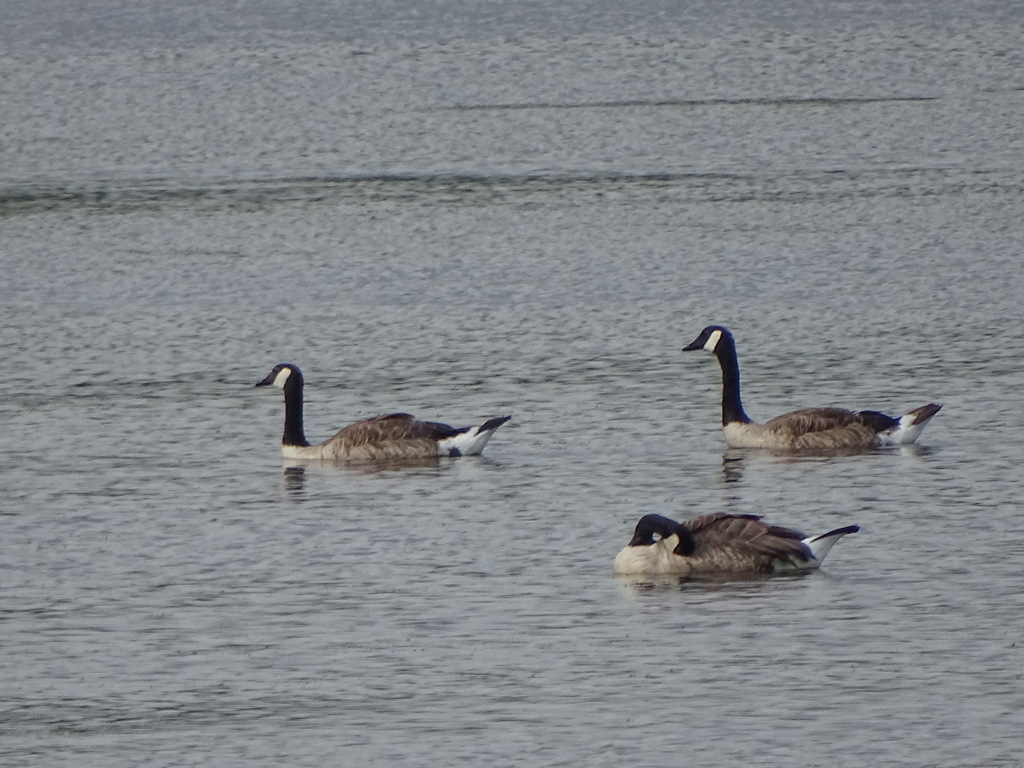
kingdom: Animalia
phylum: Chordata
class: Aves
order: Anseriformes
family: Anatidae
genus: Branta
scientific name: Branta canadensis
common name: Canada goose
